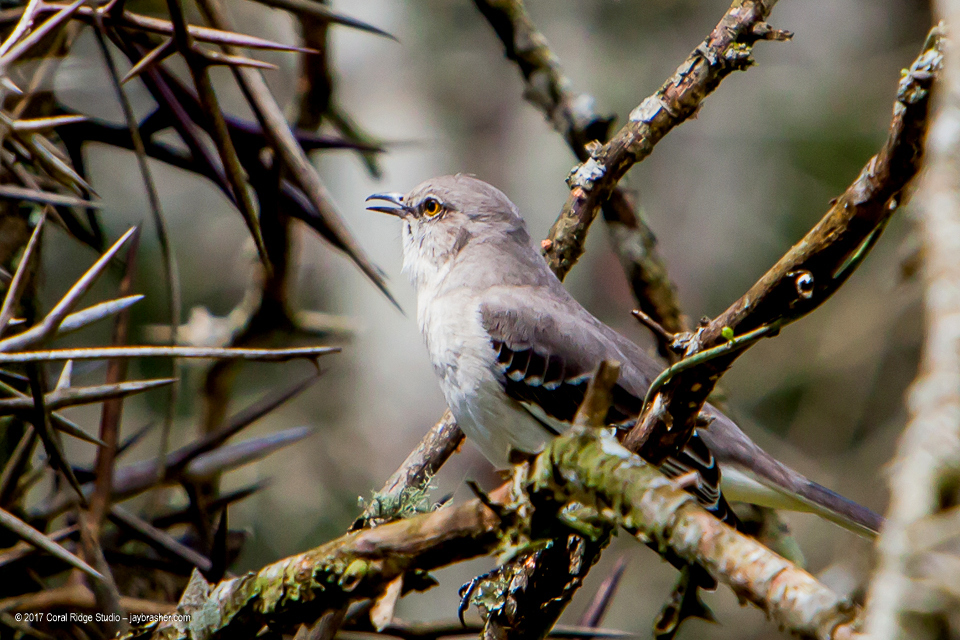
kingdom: Animalia
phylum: Chordata
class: Aves
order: Passeriformes
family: Mimidae
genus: Mimus
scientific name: Mimus polyglottos
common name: Northern mockingbird
